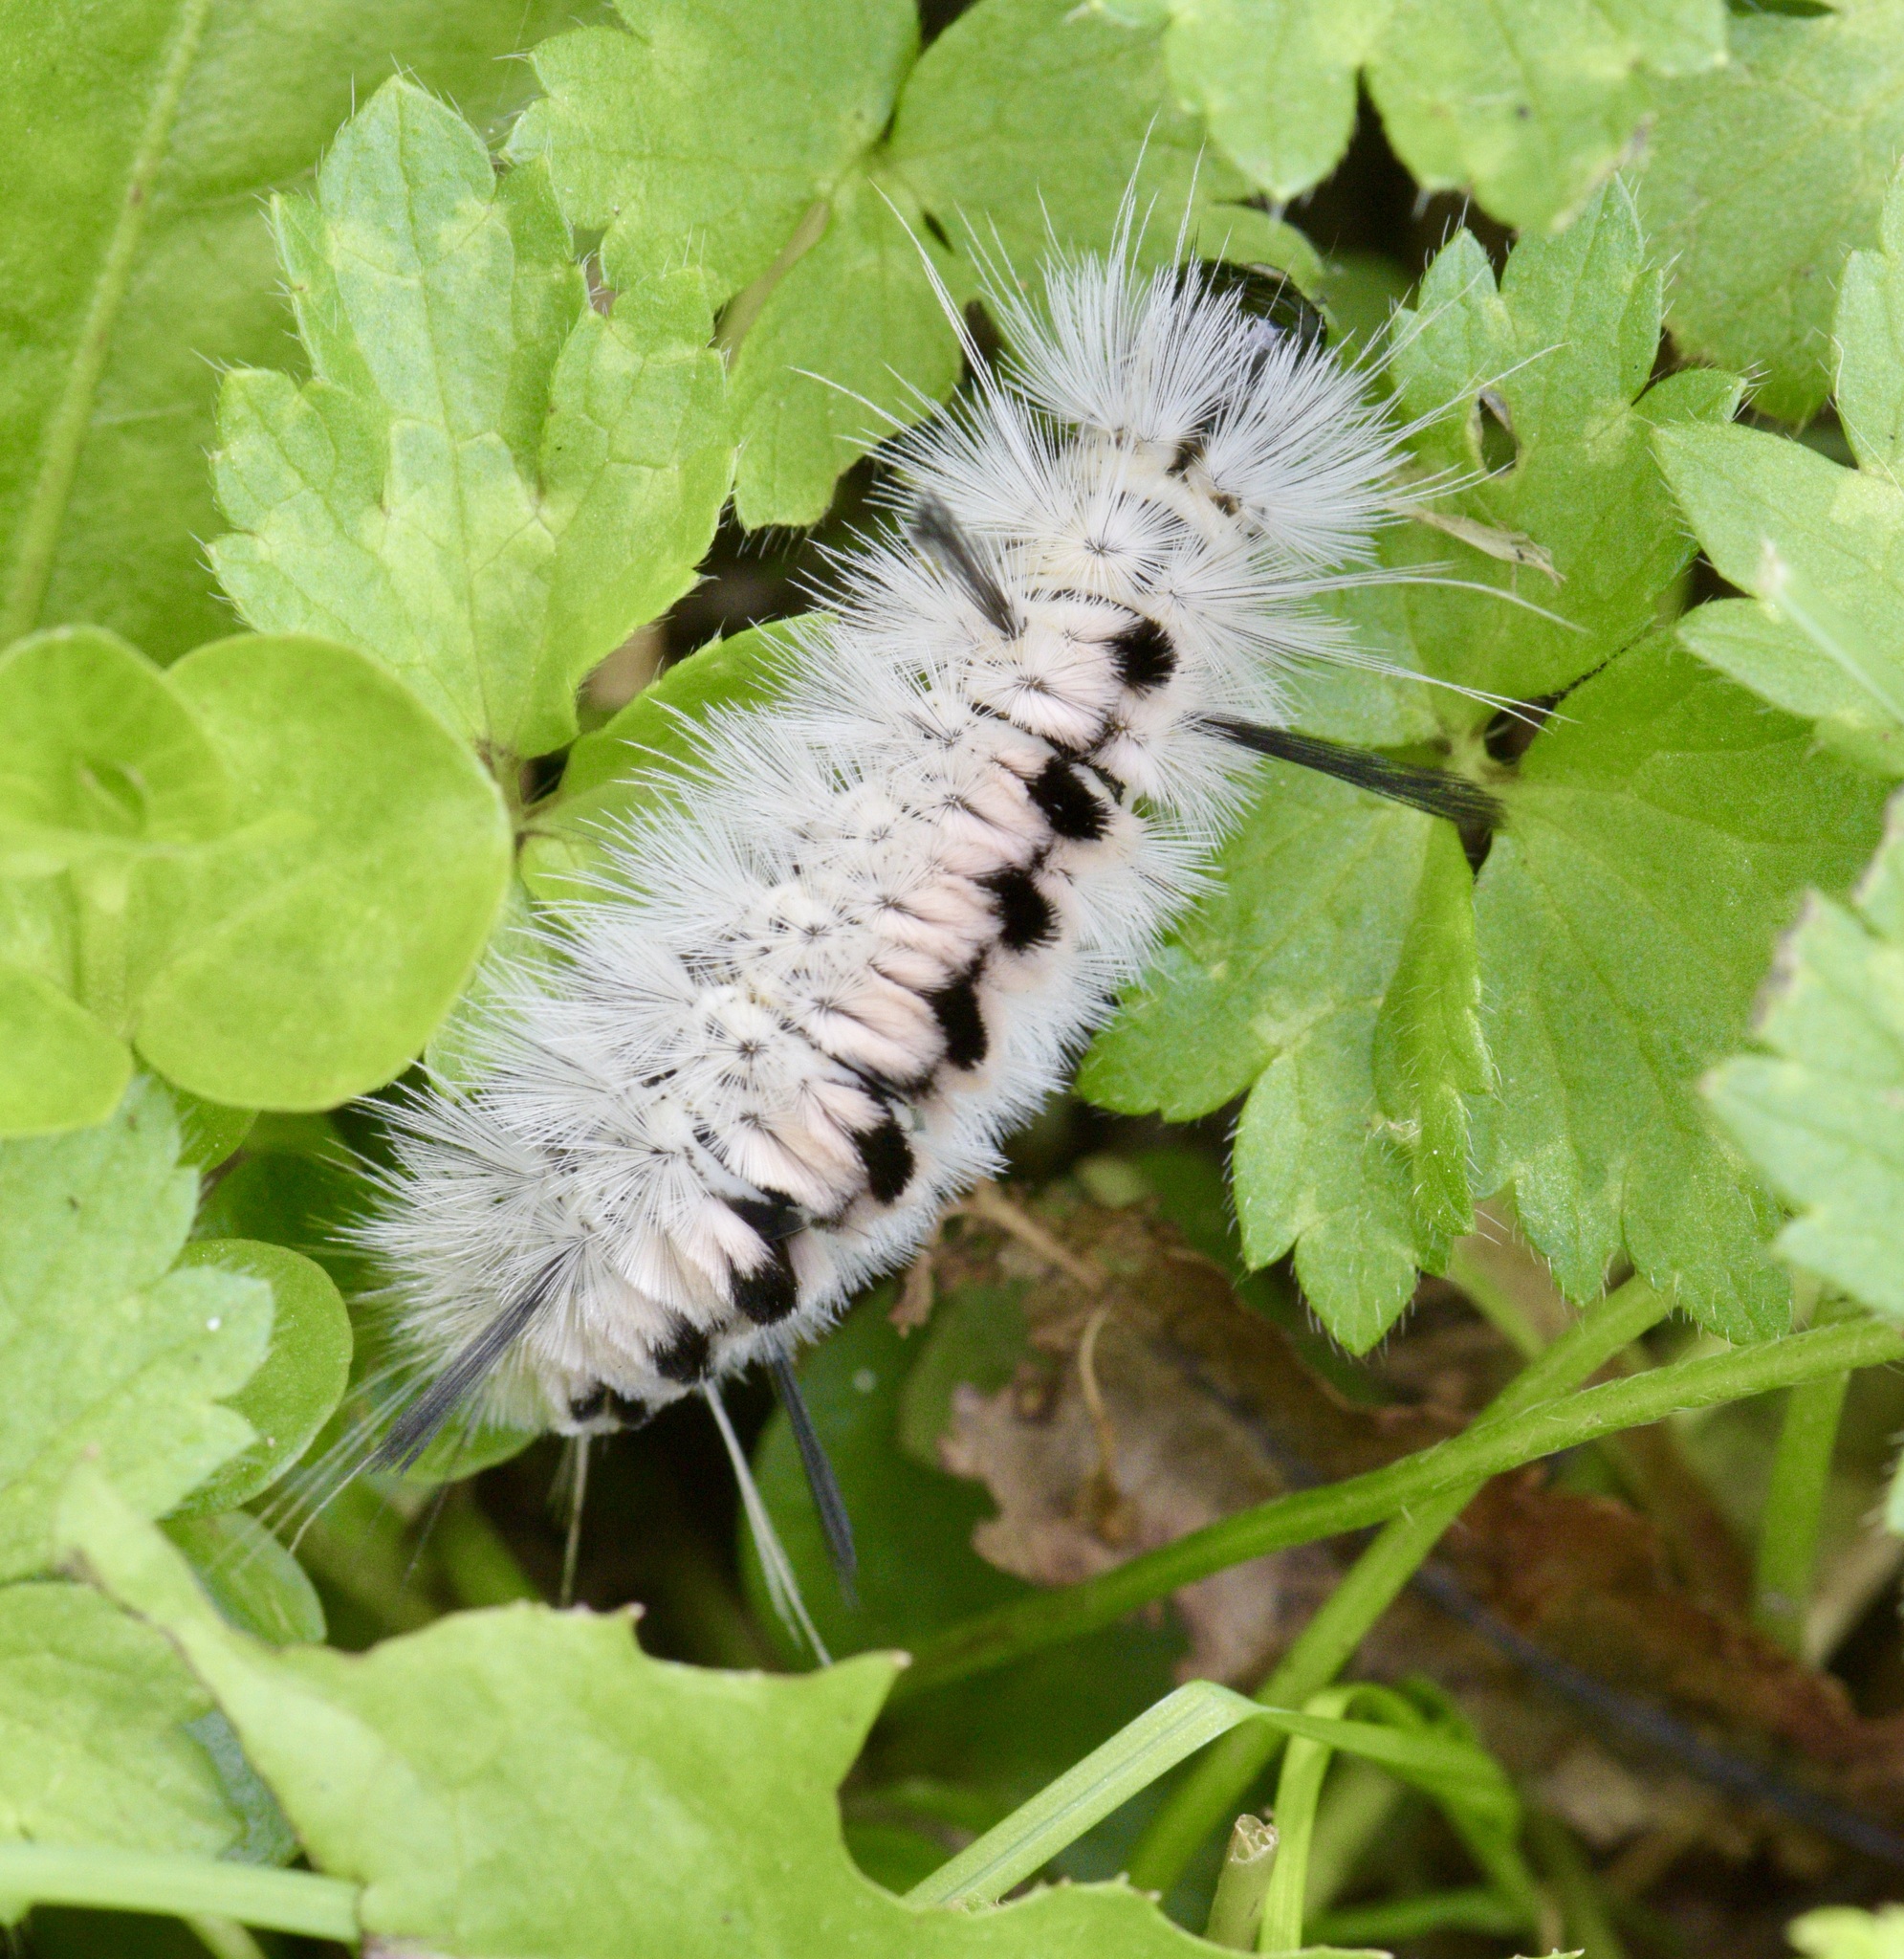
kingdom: Animalia
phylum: Arthropoda
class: Insecta
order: Lepidoptera
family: Erebidae
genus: Lophocampa
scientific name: Lophocampa caryae
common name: Hickory tussock moth
